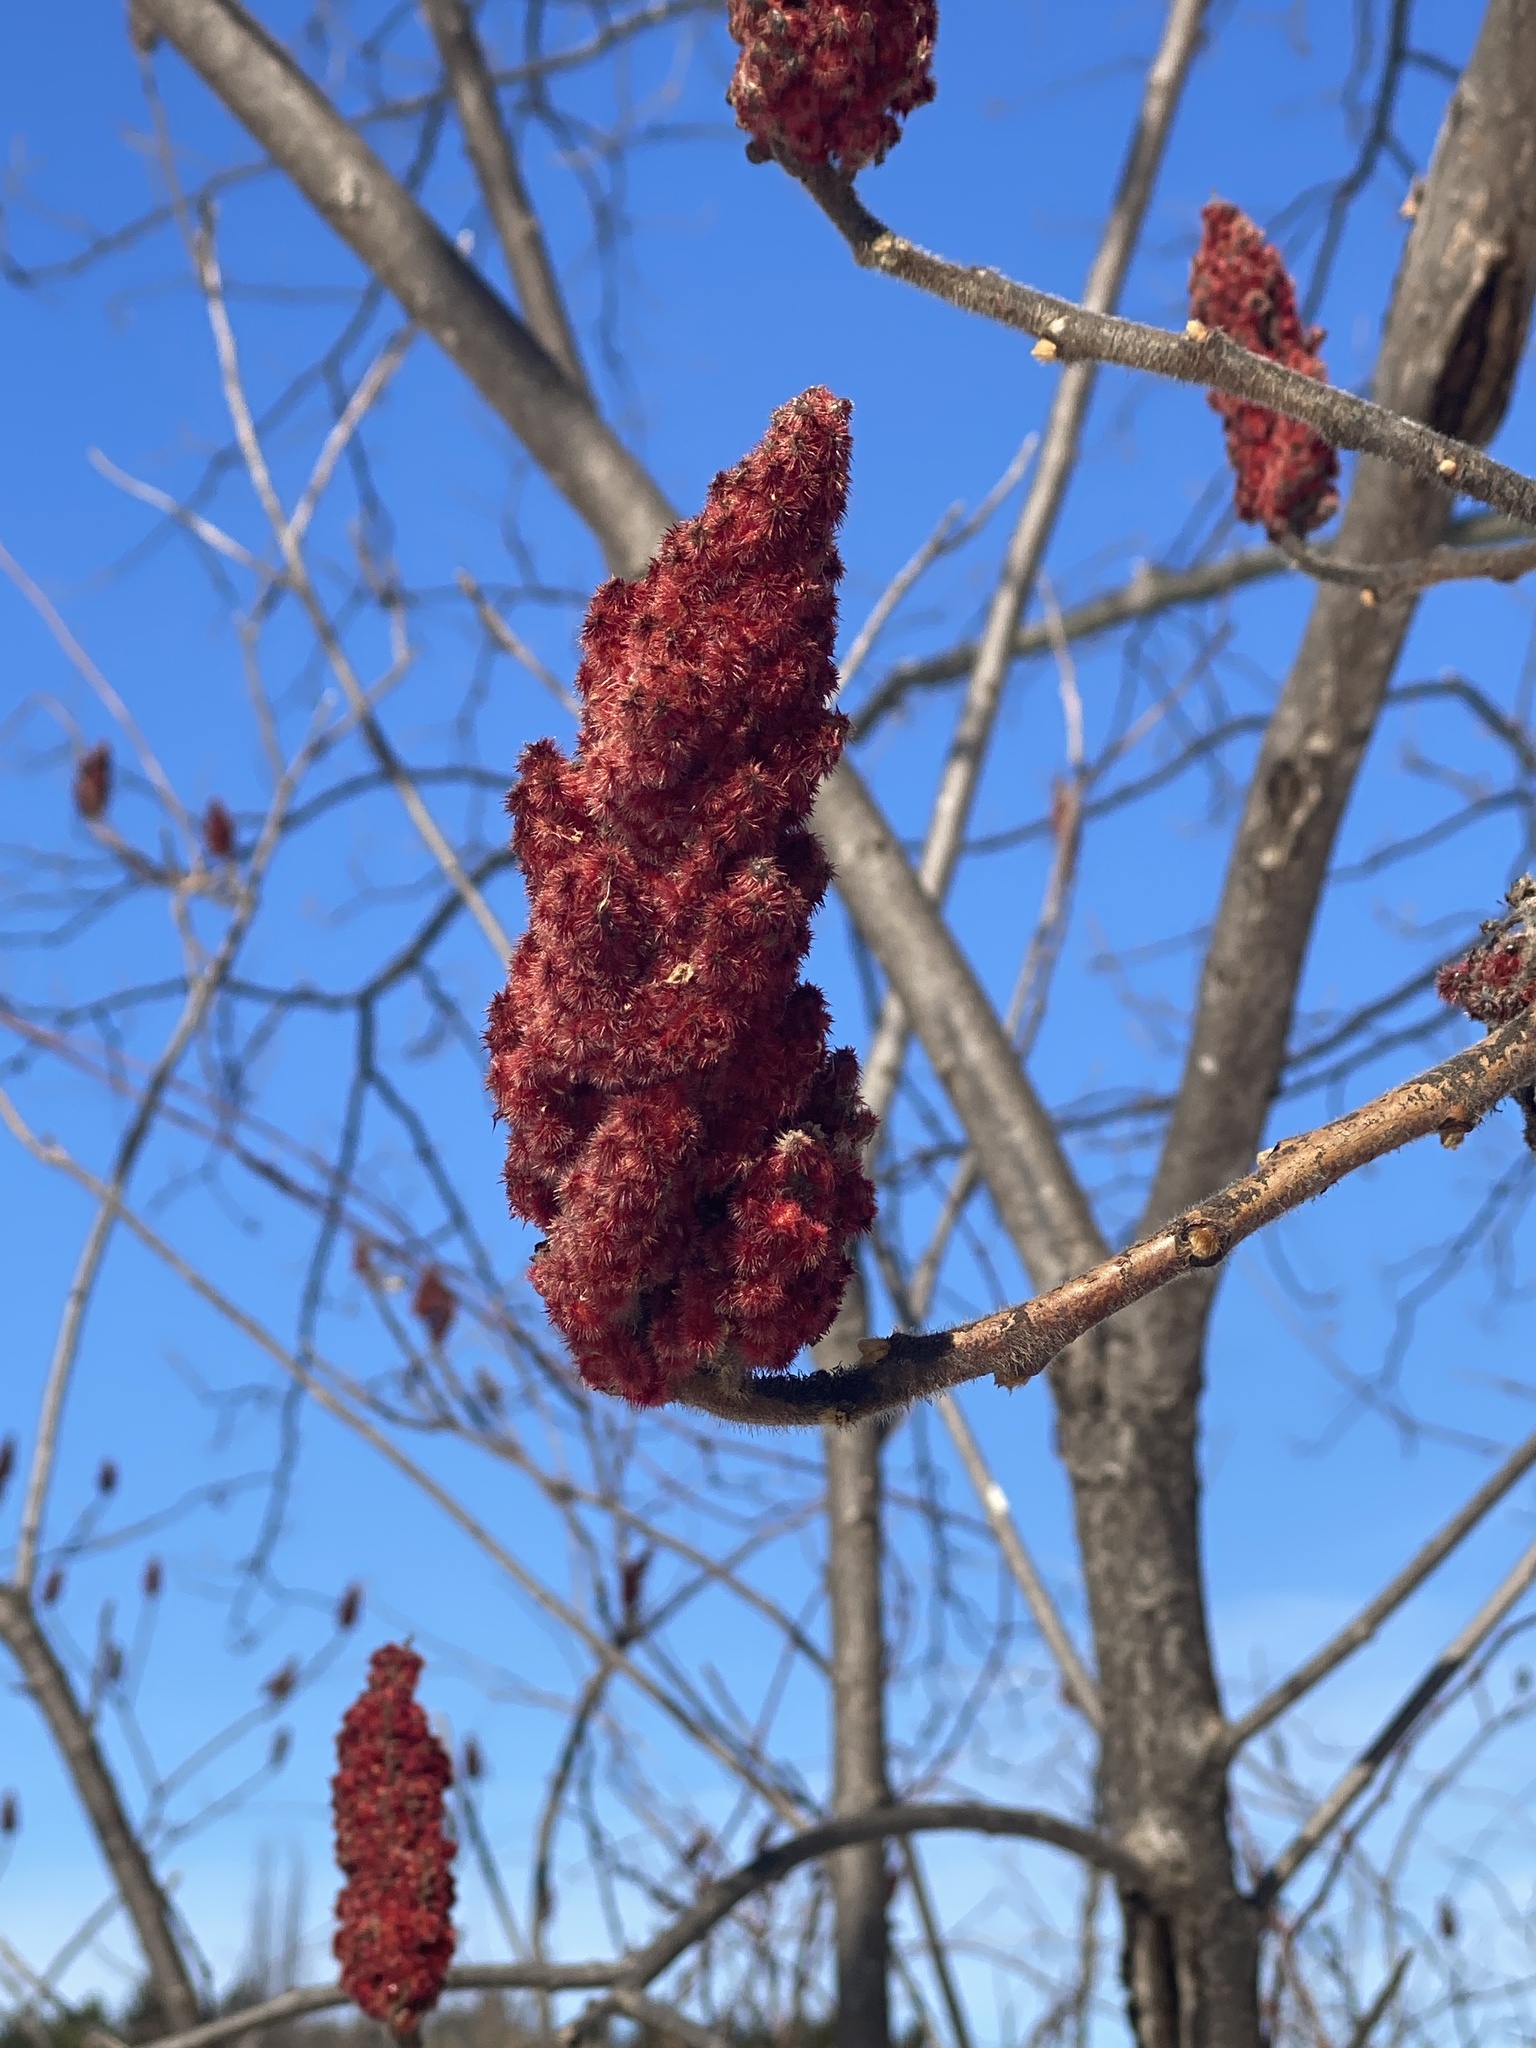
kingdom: Plantae
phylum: Tracheophyta
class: Magnoliopsida
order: Sapindales
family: Anacardiaceae
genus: Rhus
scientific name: Rhus typhina
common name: Staghorn sumac
